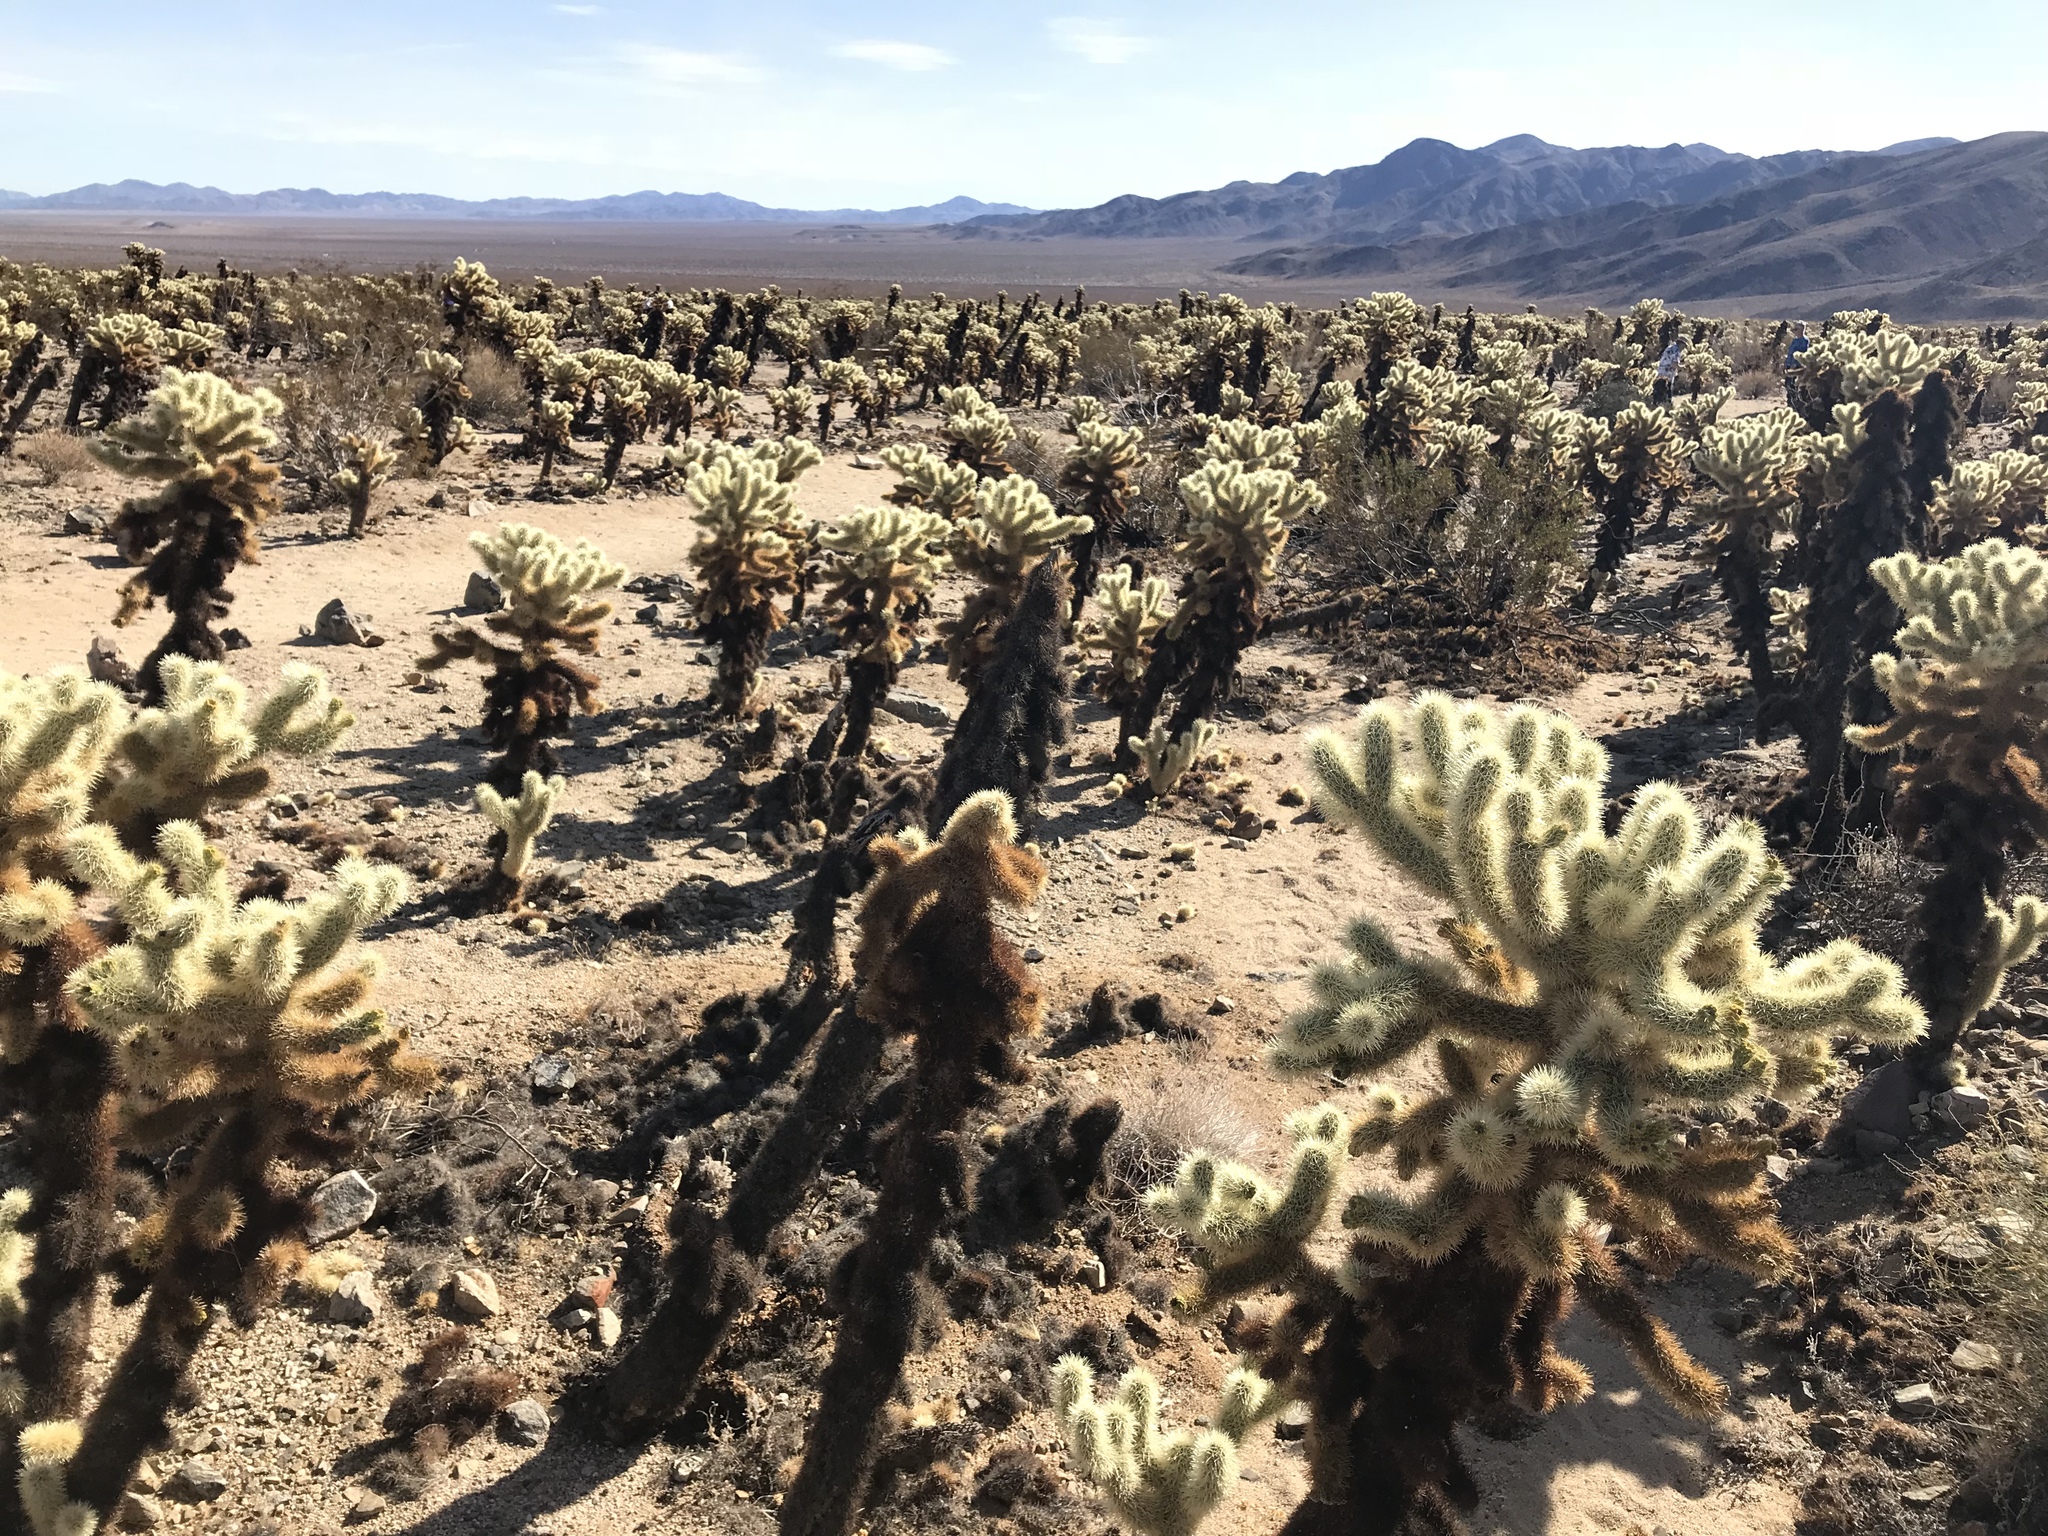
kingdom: Plantae
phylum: Tracheophyta
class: Magnoliopsida
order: Caryophyllales
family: Cactaceae
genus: Cylindropuntia
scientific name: Cylindropuntia fosbergii
